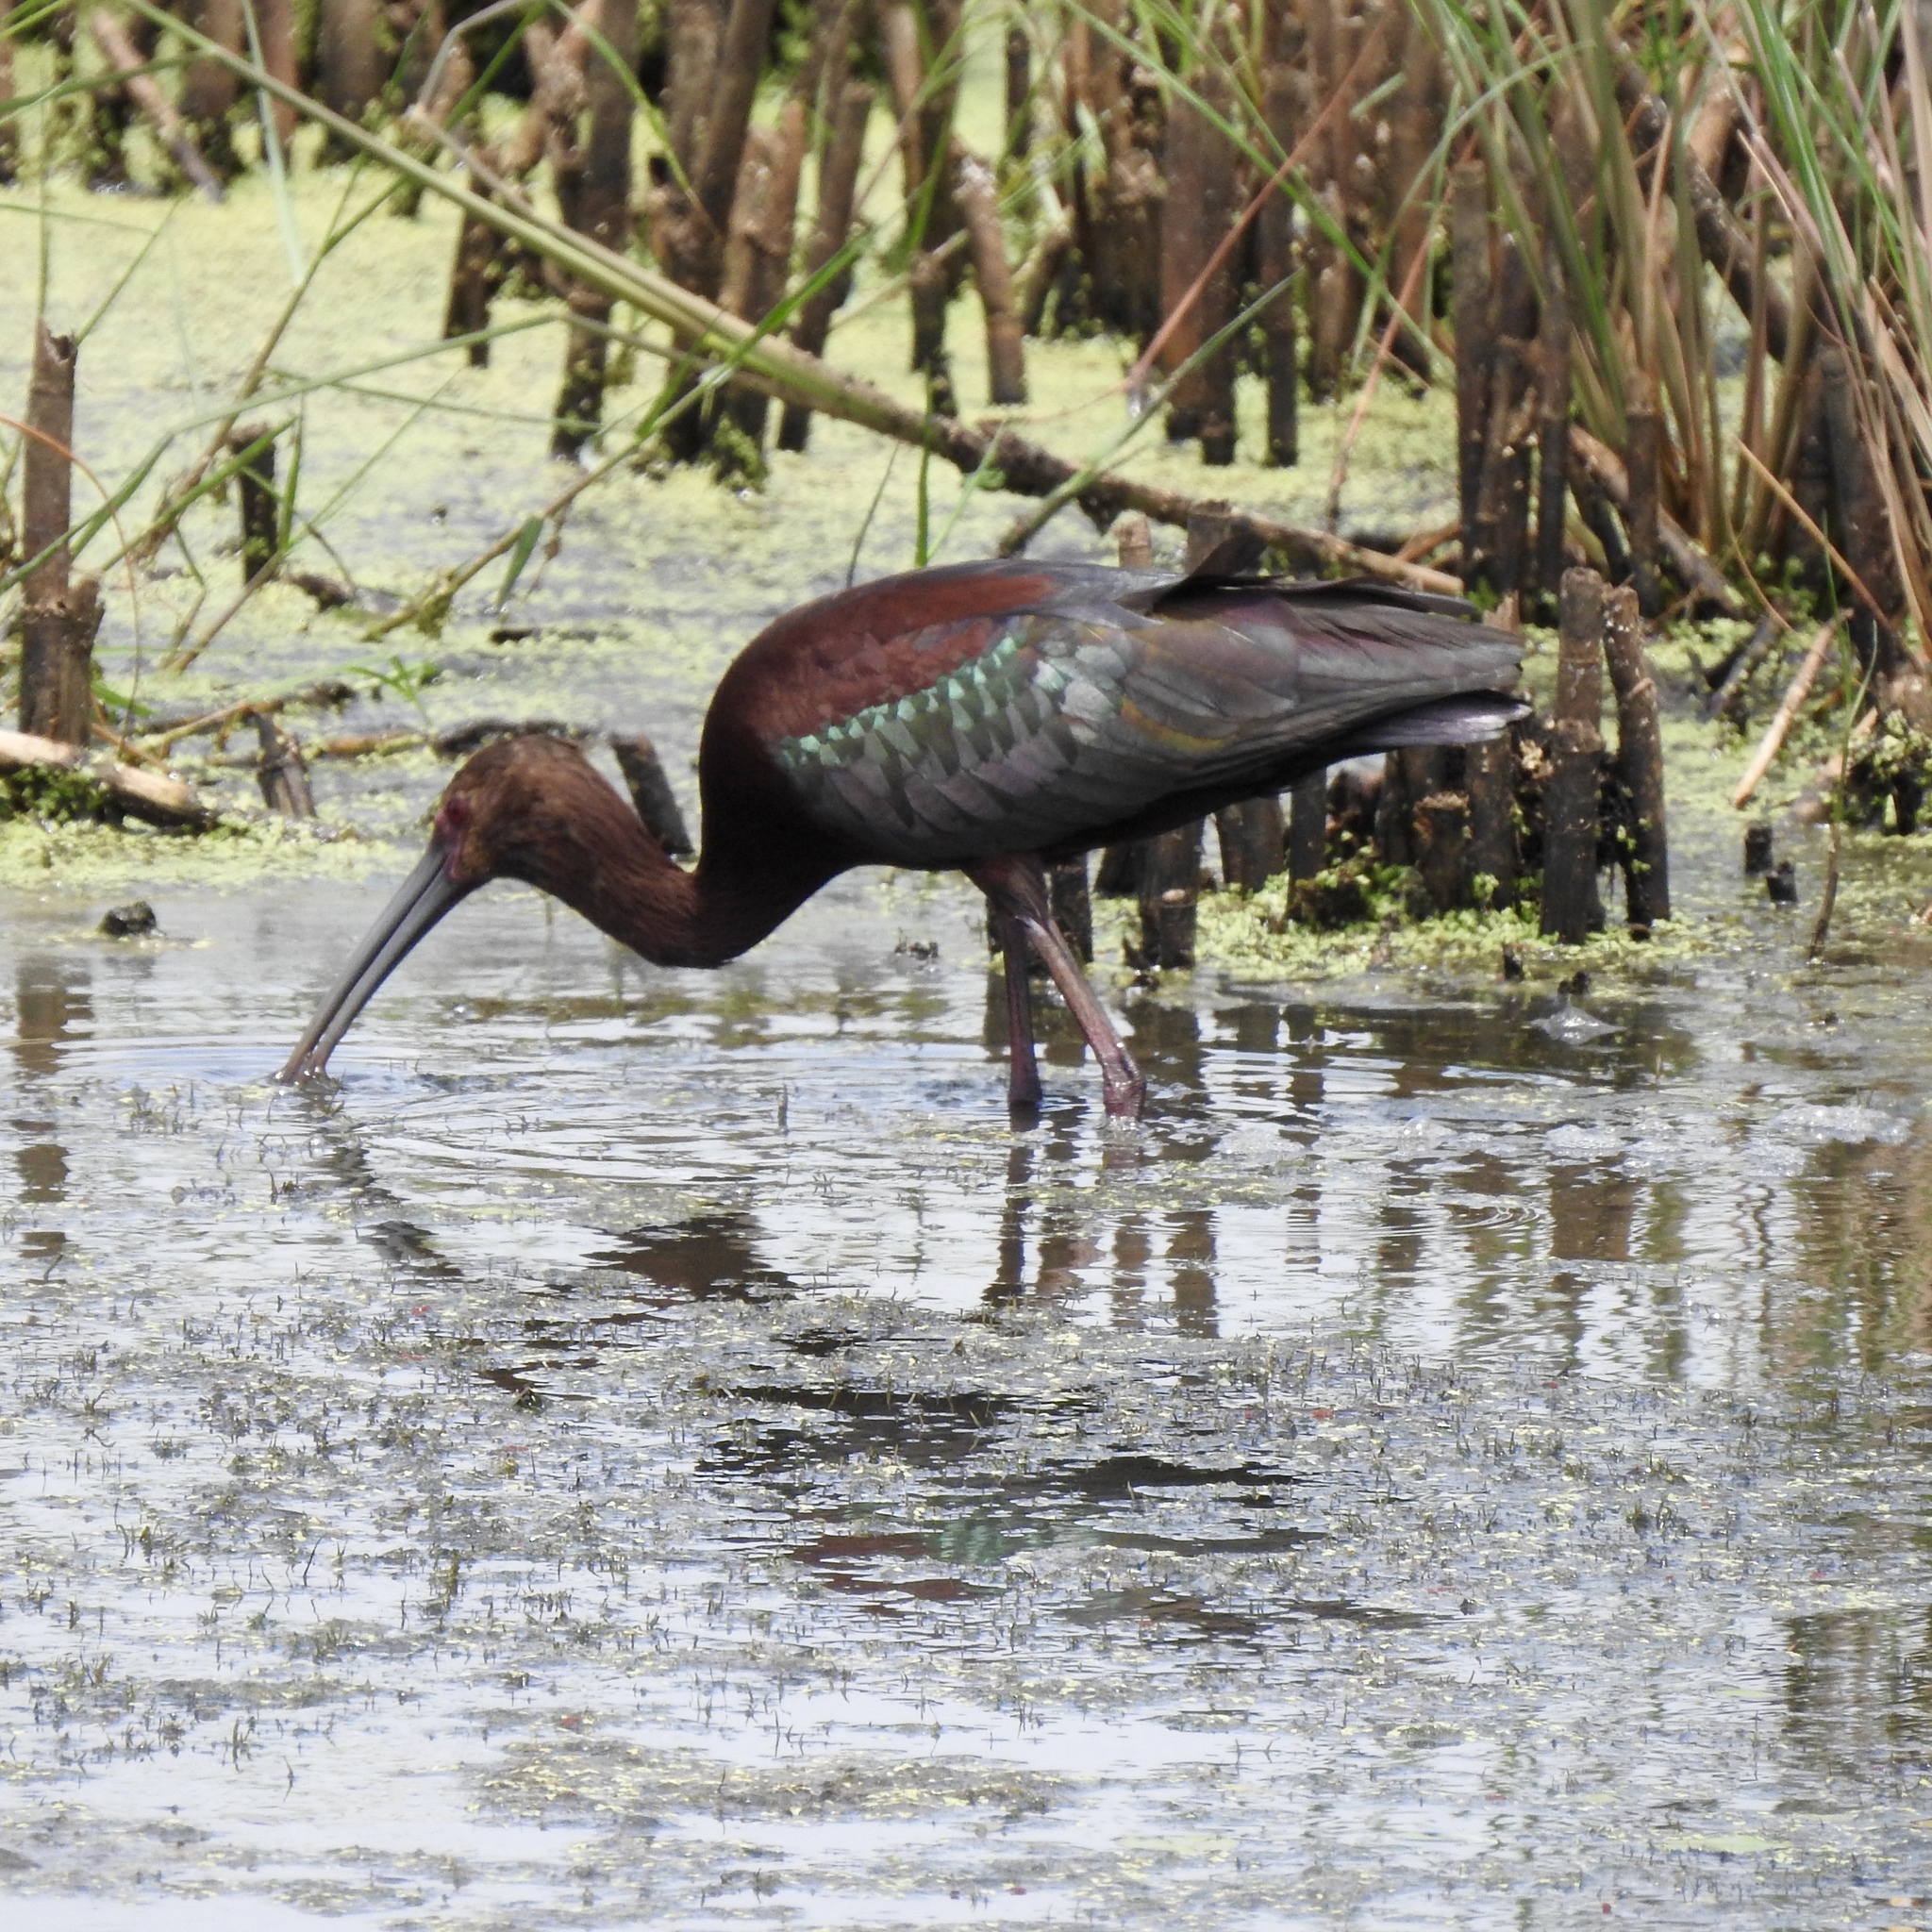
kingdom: Animalia
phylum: Chordata
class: Aves
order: Pelecaniformes
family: Threskiornithidae
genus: Plegadis
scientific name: Plegadis chihi
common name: White-faced ibis
